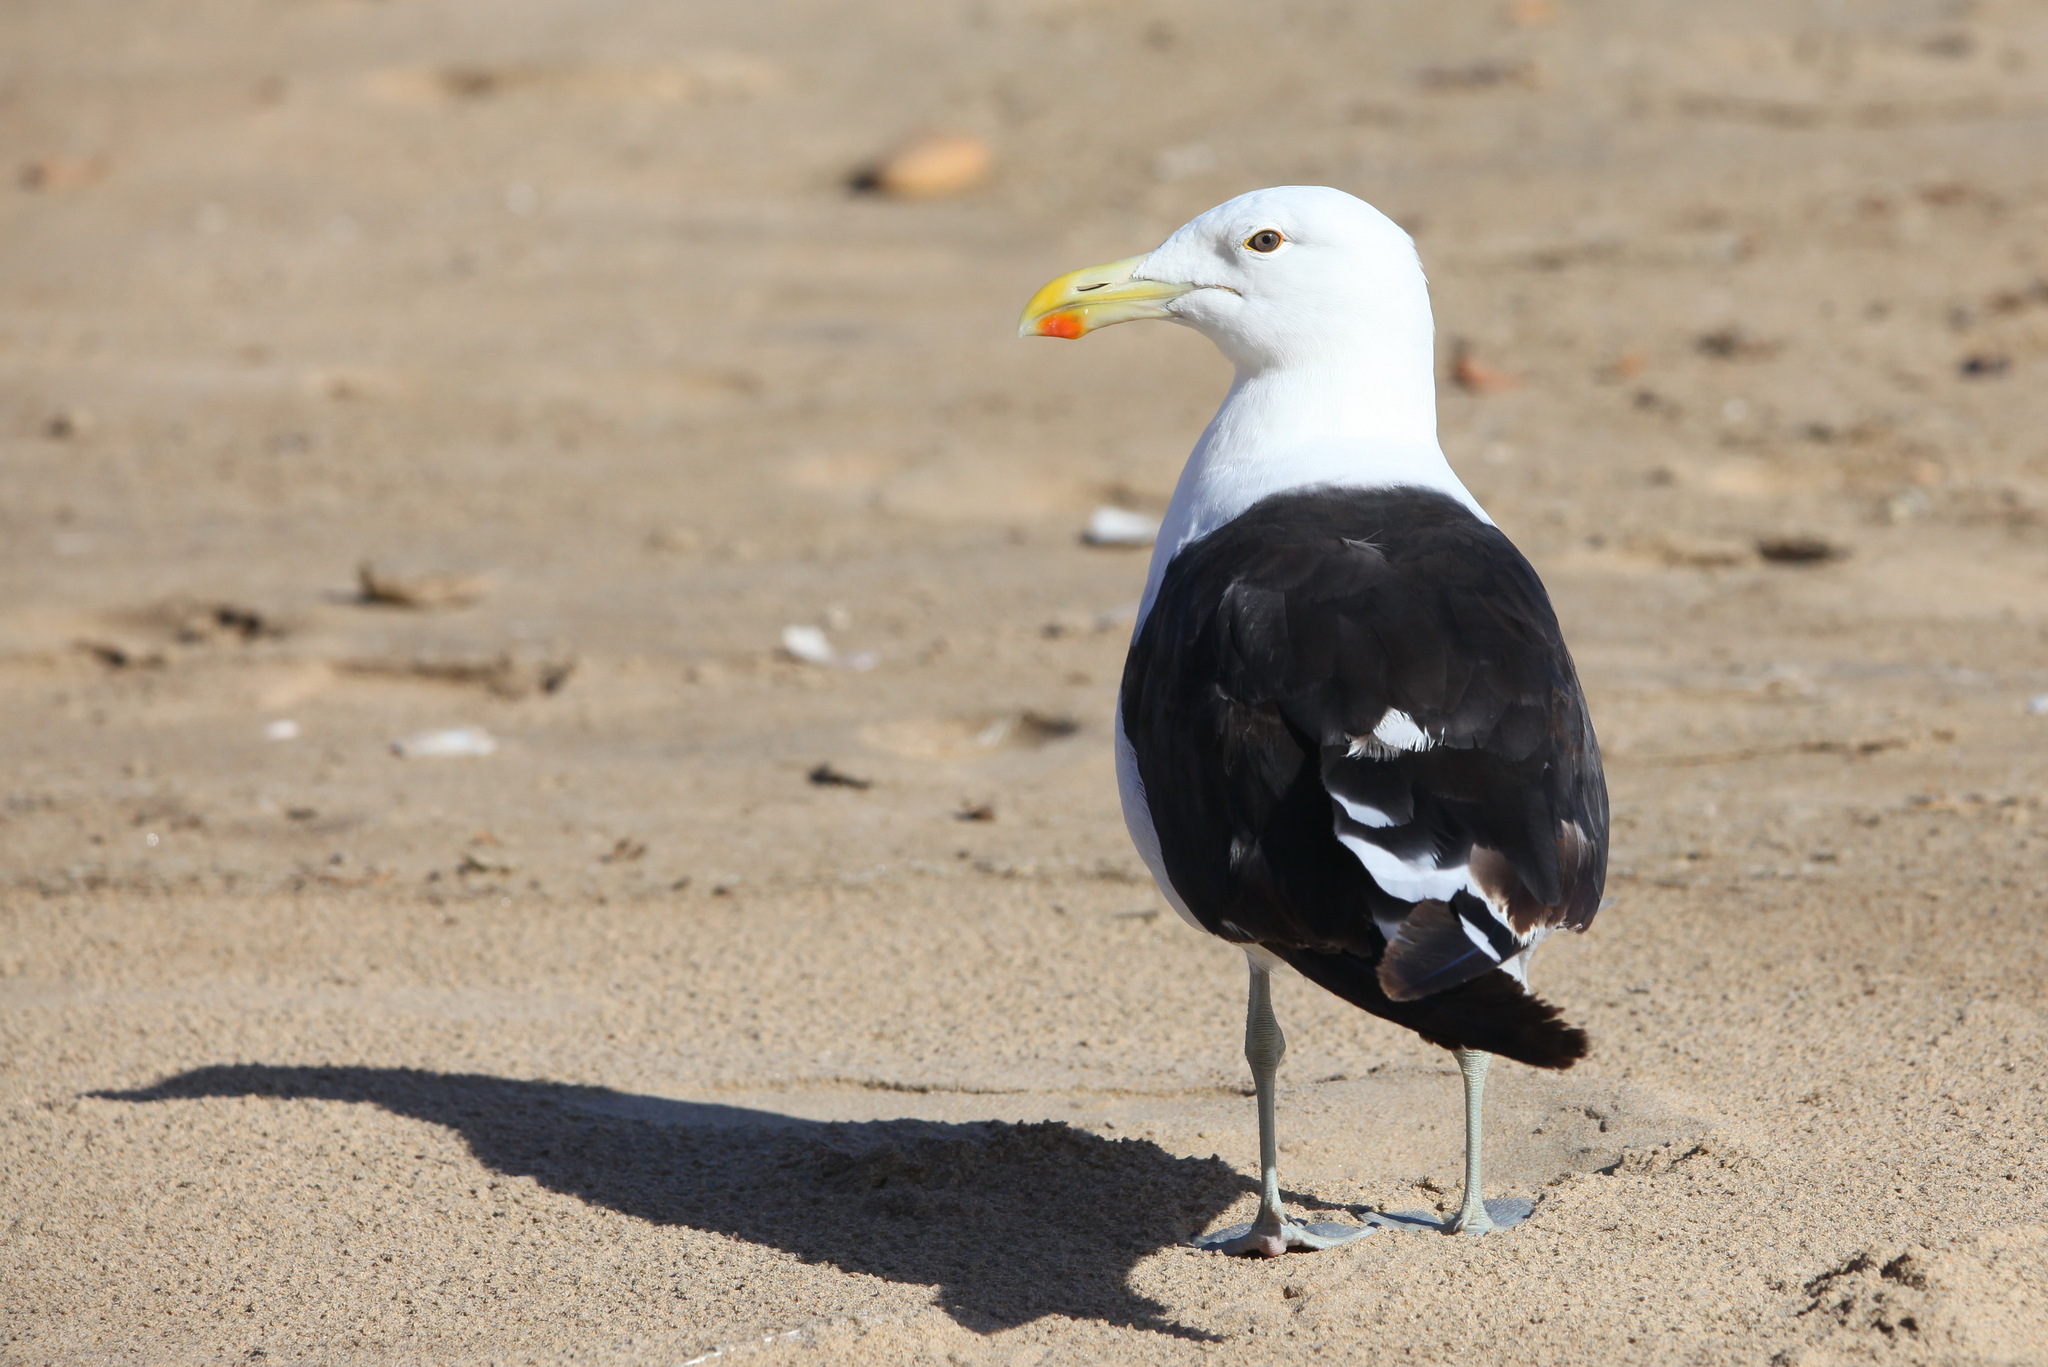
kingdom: Animalia
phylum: Chordata
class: Aves
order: Charadriiformes
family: Laridae
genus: Larus
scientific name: Larus dominicanus
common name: Kelp gull
